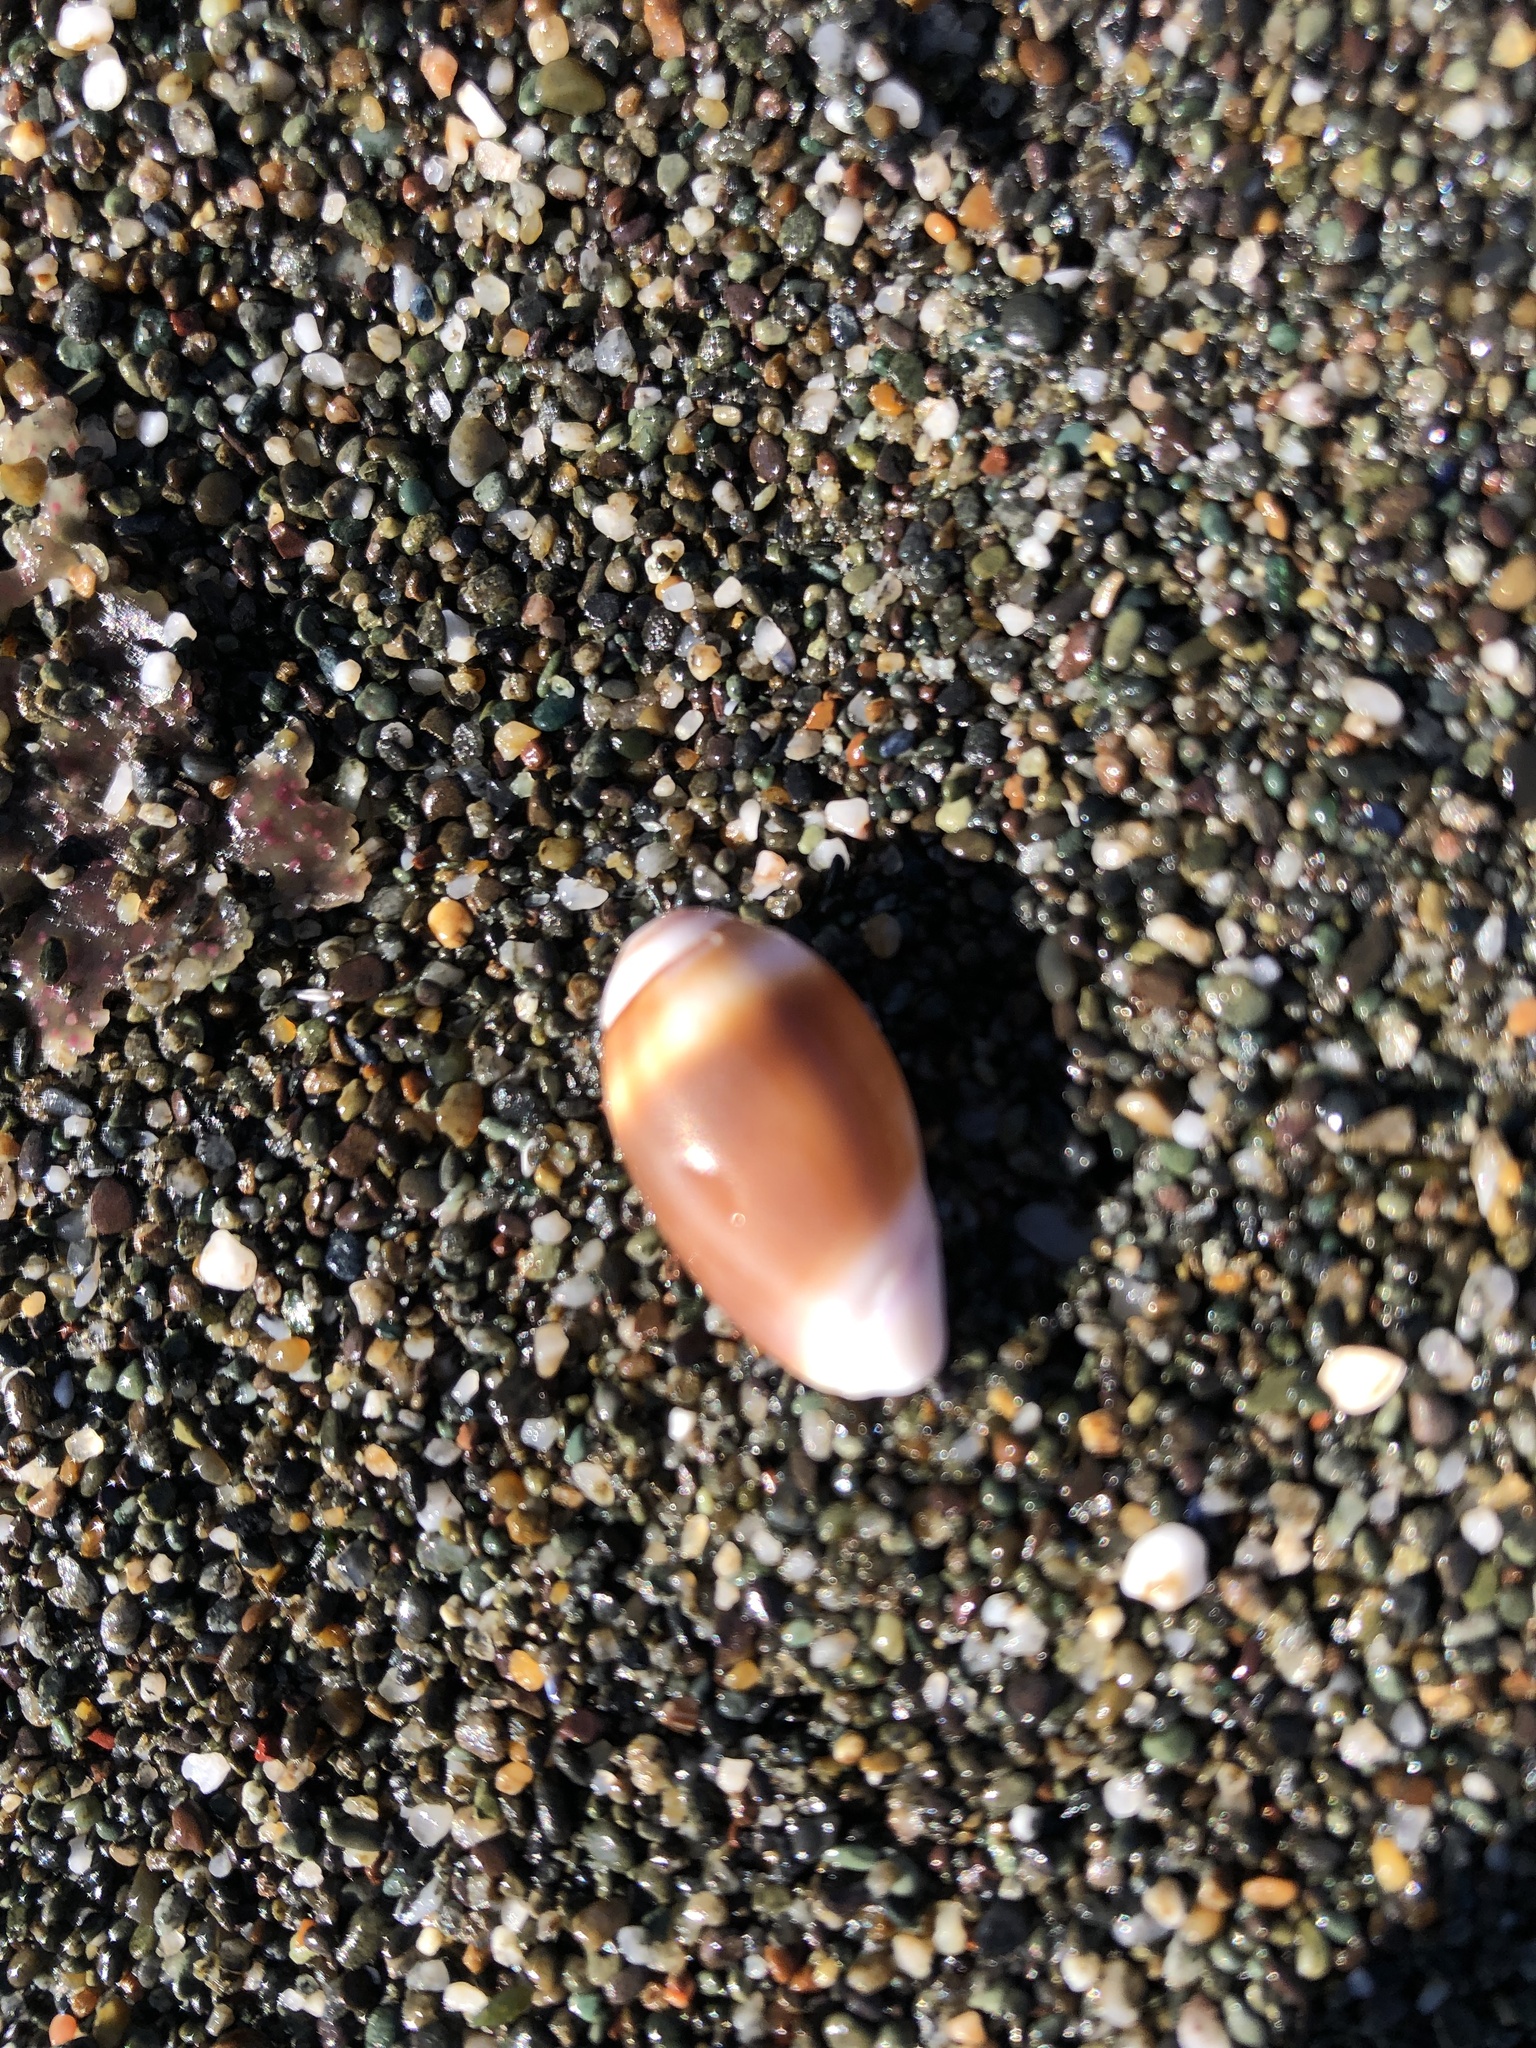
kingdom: Animalia
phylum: Mollusca
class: Gastropoda
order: Neogastropoda
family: Olividae
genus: Callianax
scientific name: Callianax biplicata
